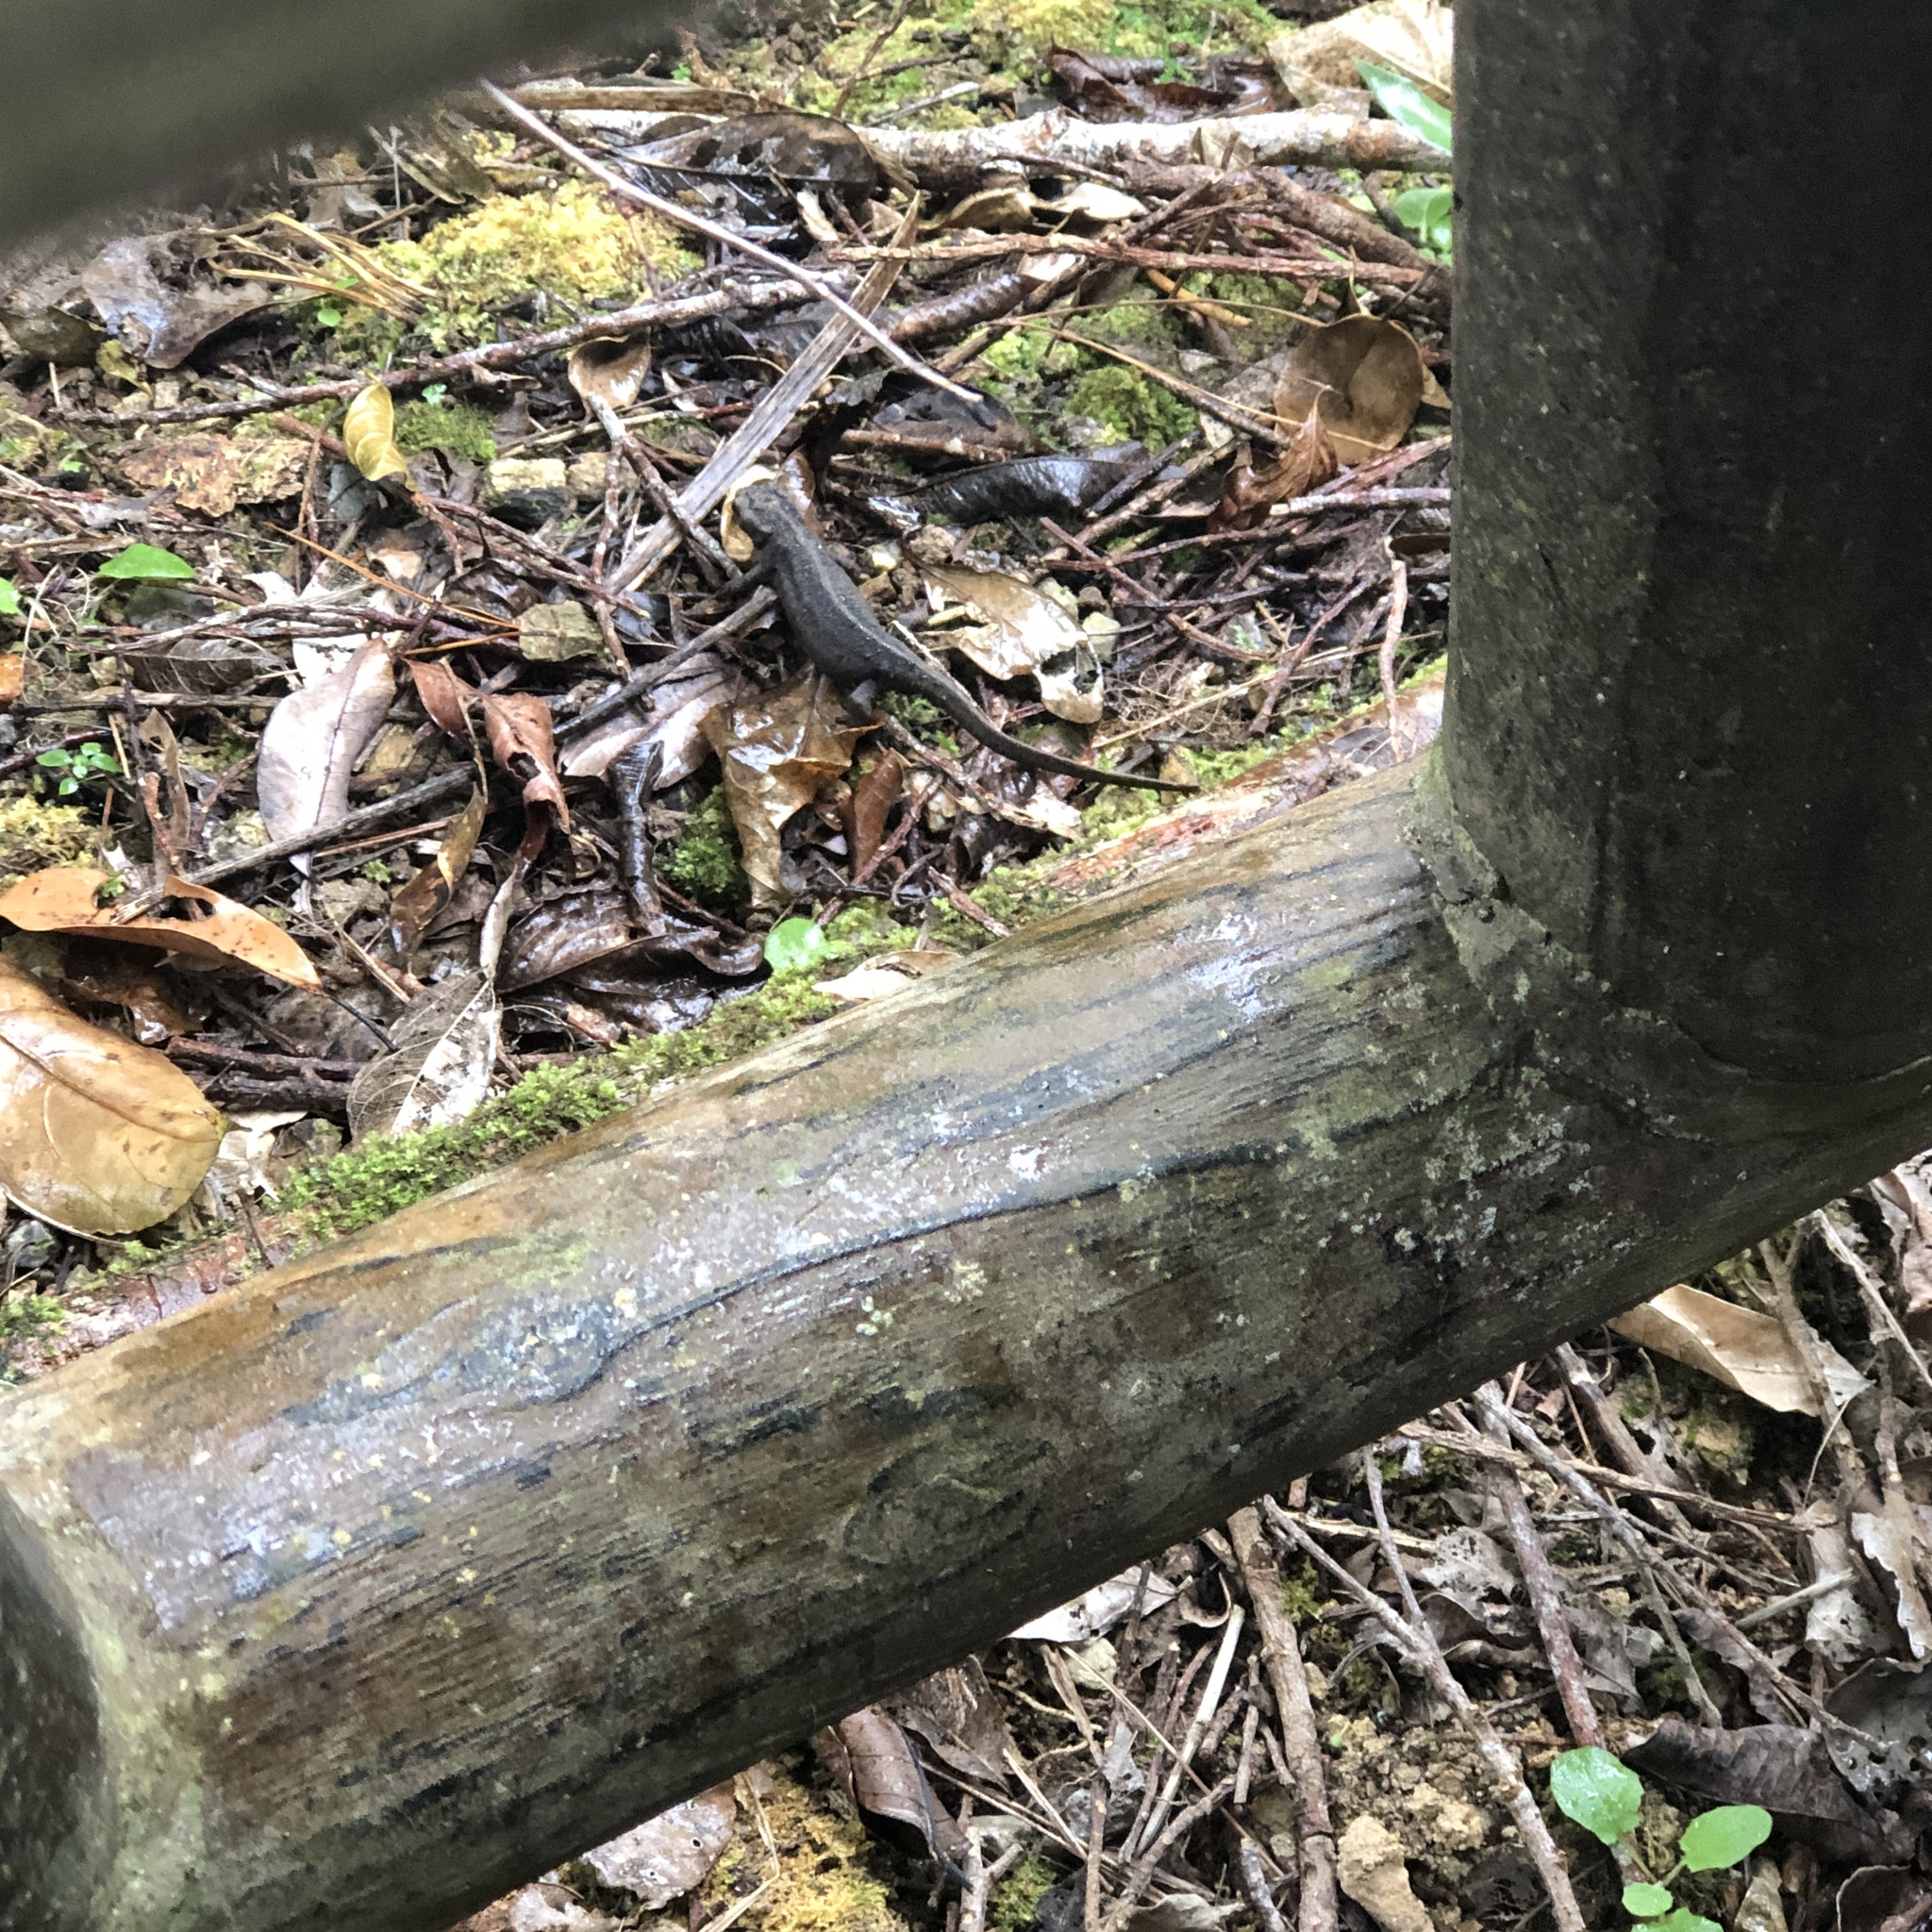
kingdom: Animalia
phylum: Chordata
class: Amphibia
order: Caudata
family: Salamandridae
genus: Cynops
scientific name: Cynops ensicauda
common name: Sword-tailed newt
